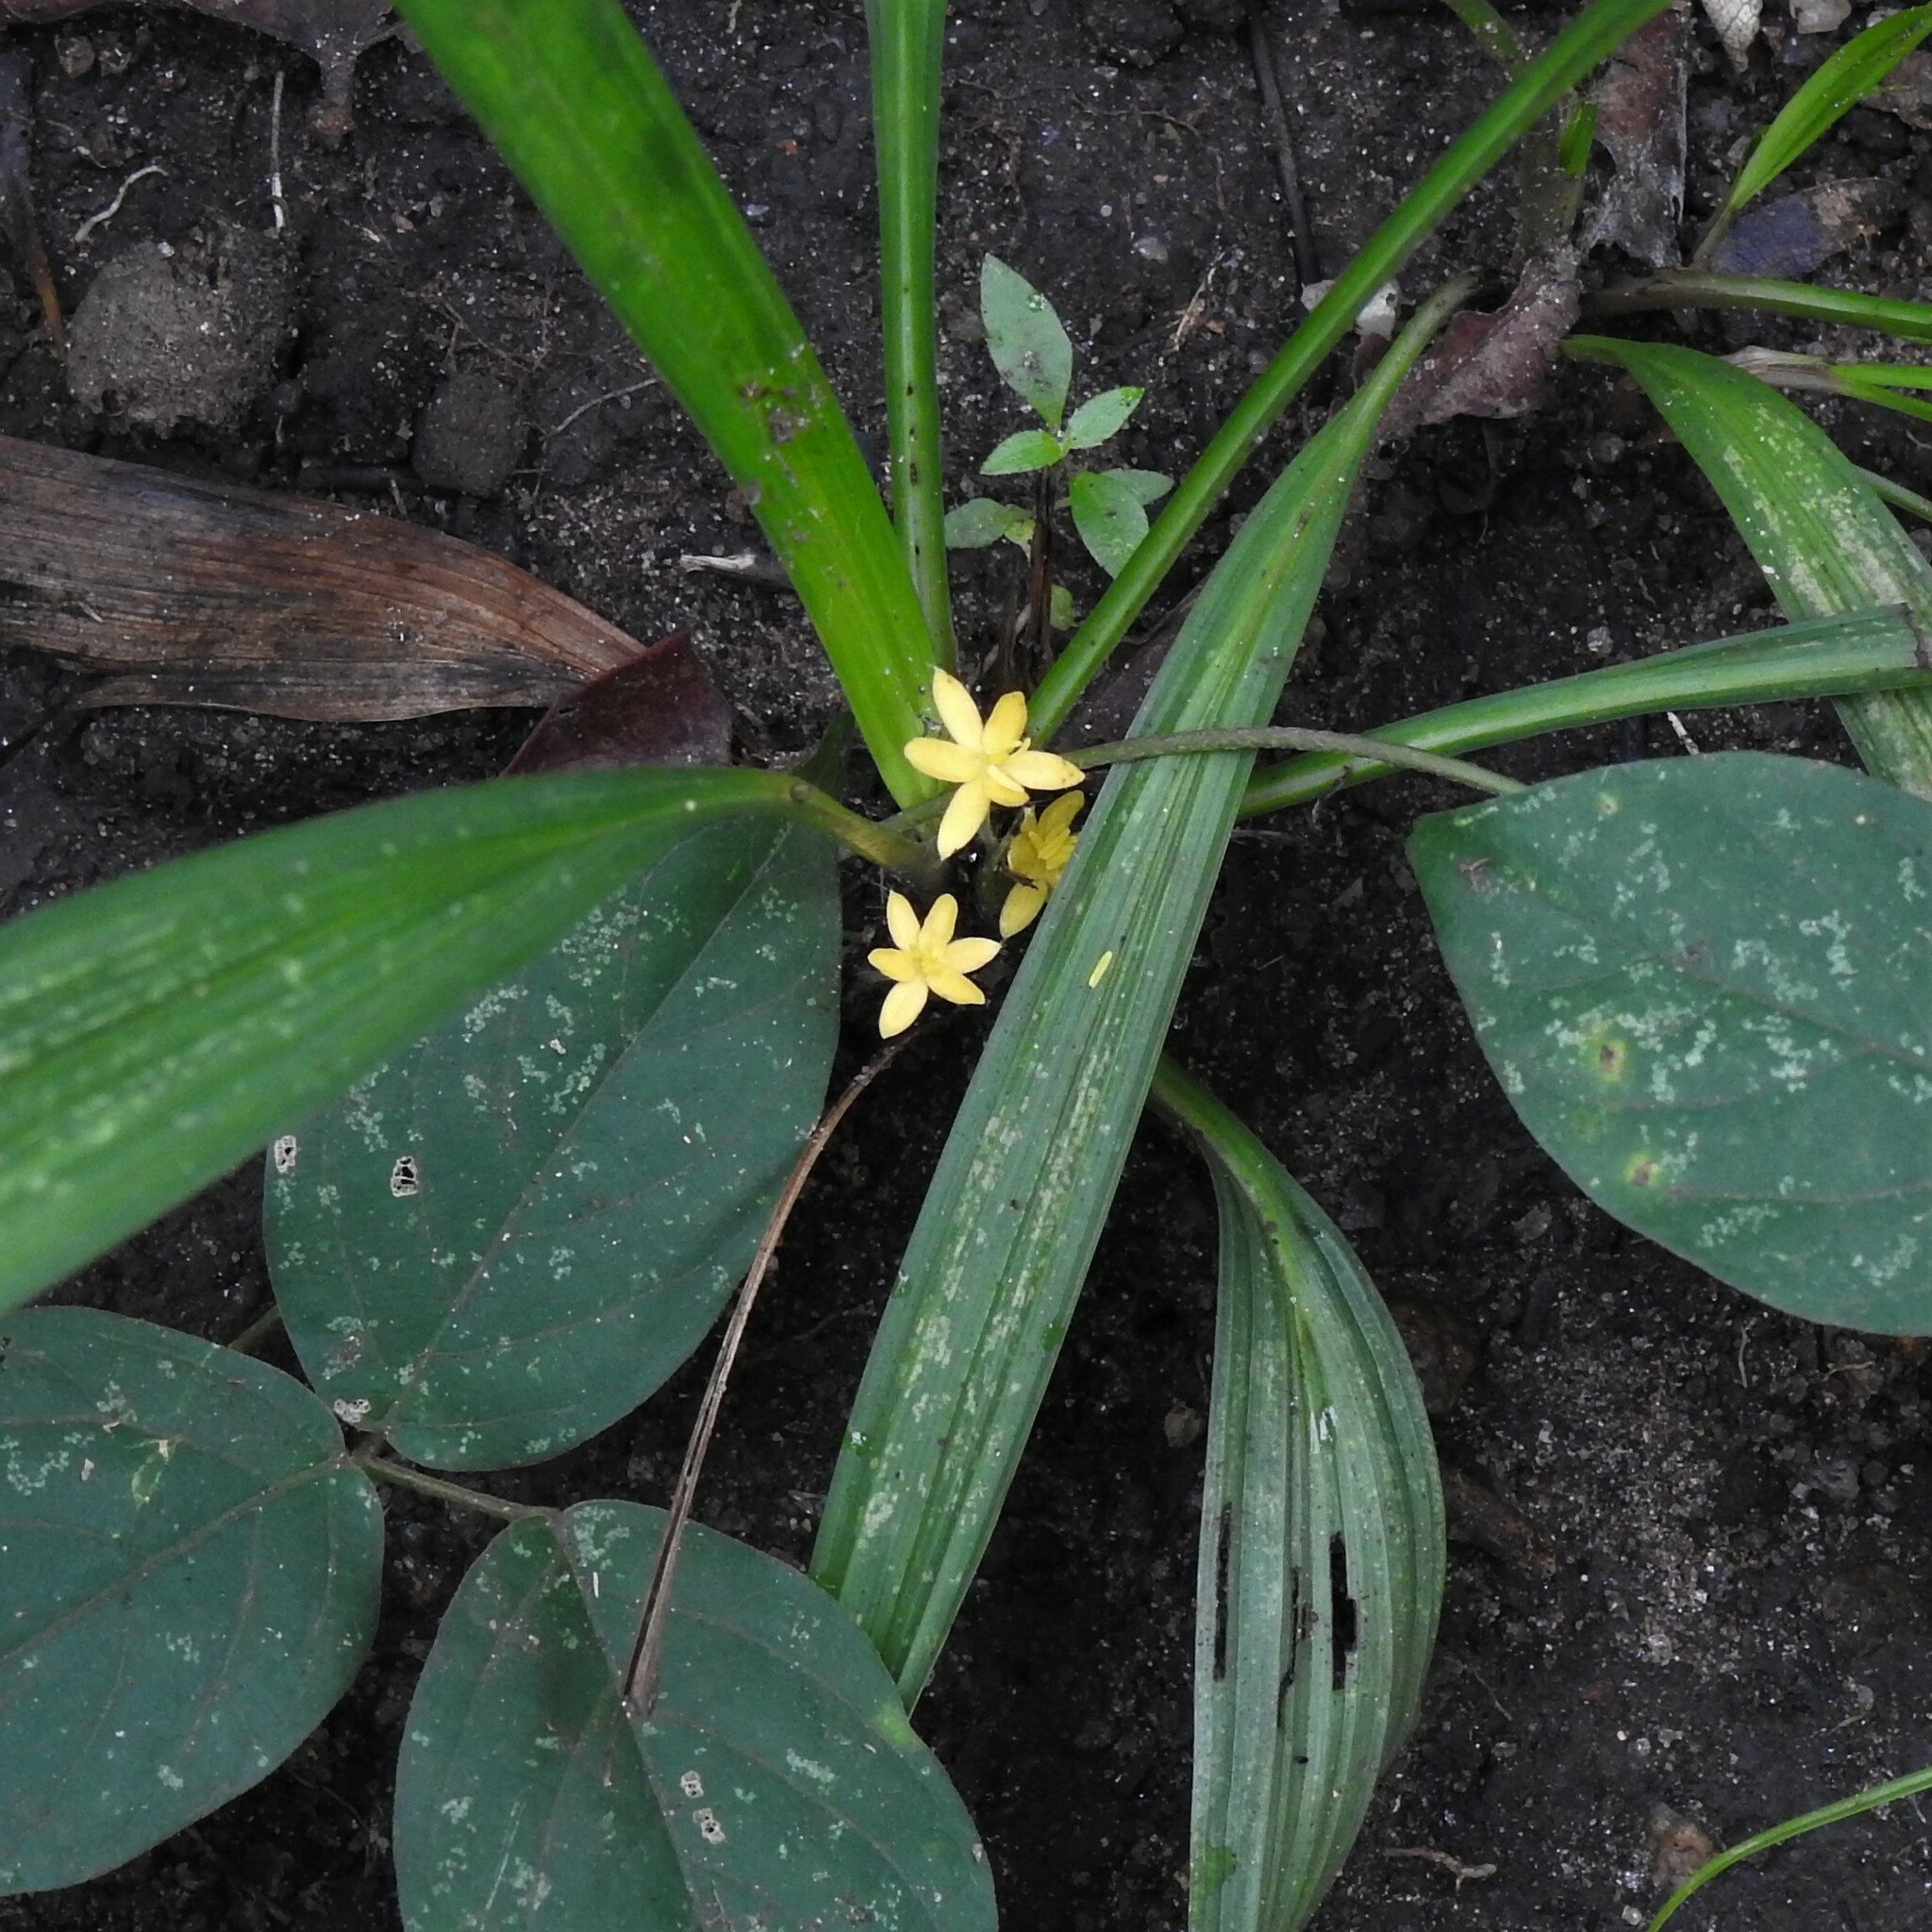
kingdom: Plantae
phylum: Tracheophyta
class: Liliopsida
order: Asparagales
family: Hypoxidaceae
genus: Curculigo
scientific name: Curculigo orchioides
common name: Golden eye-grass
